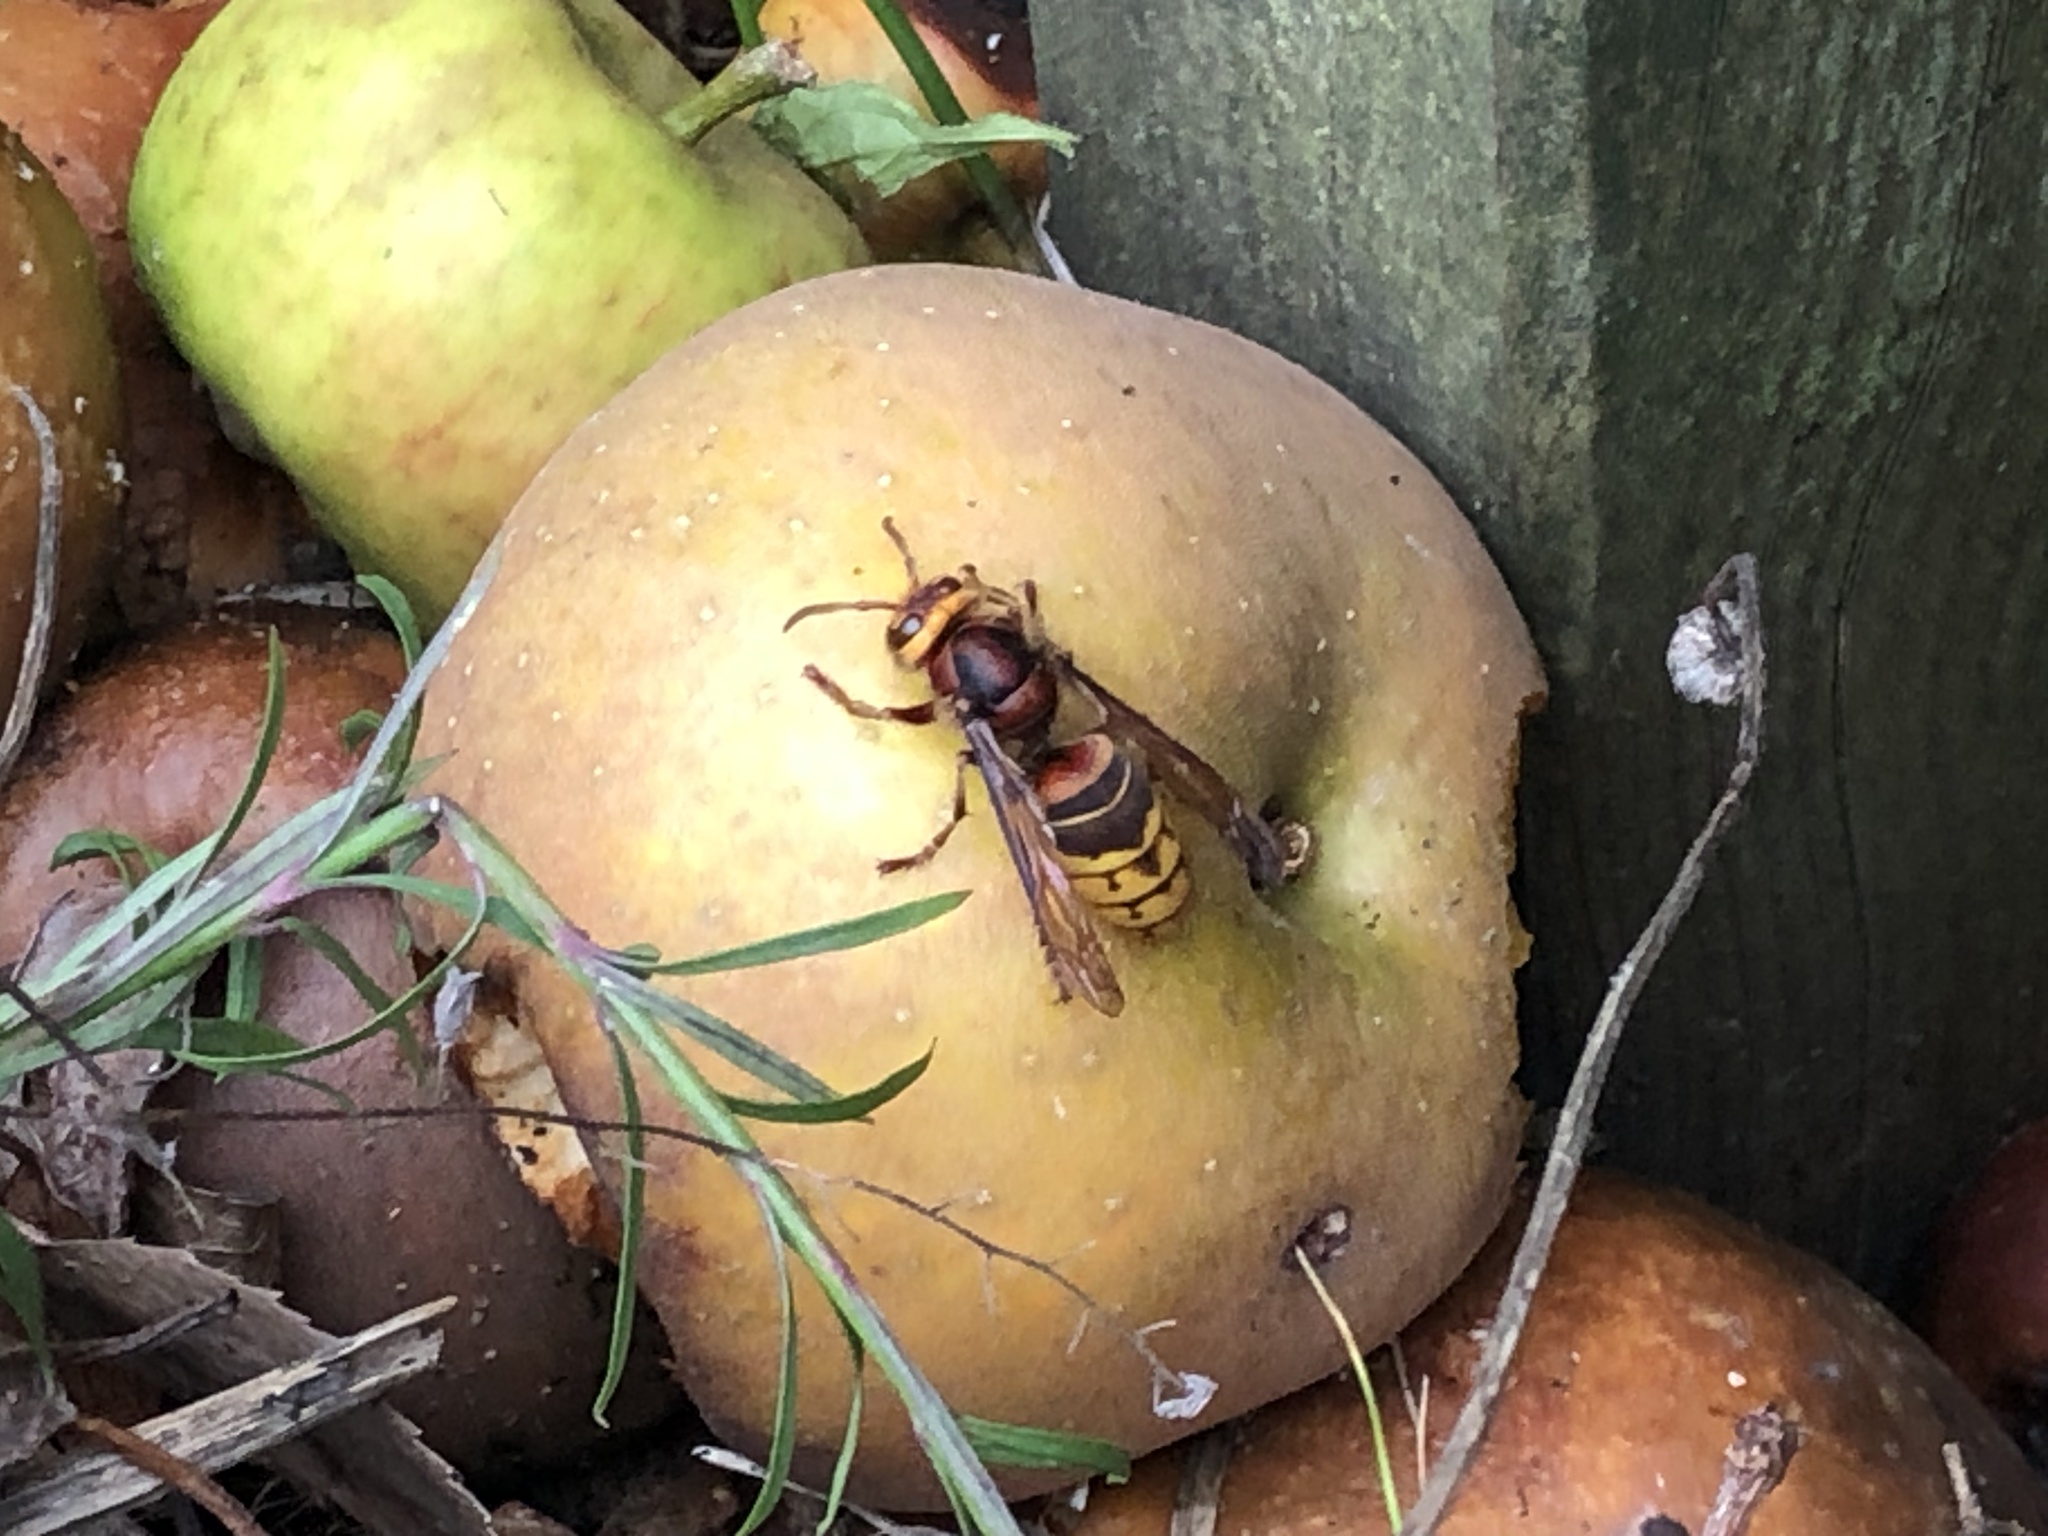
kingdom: Animalia
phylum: Arthropoda
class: Insecta
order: Hymenoptera
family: Vespidae
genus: Vespa
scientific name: Vespa crabro
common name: Hornet
